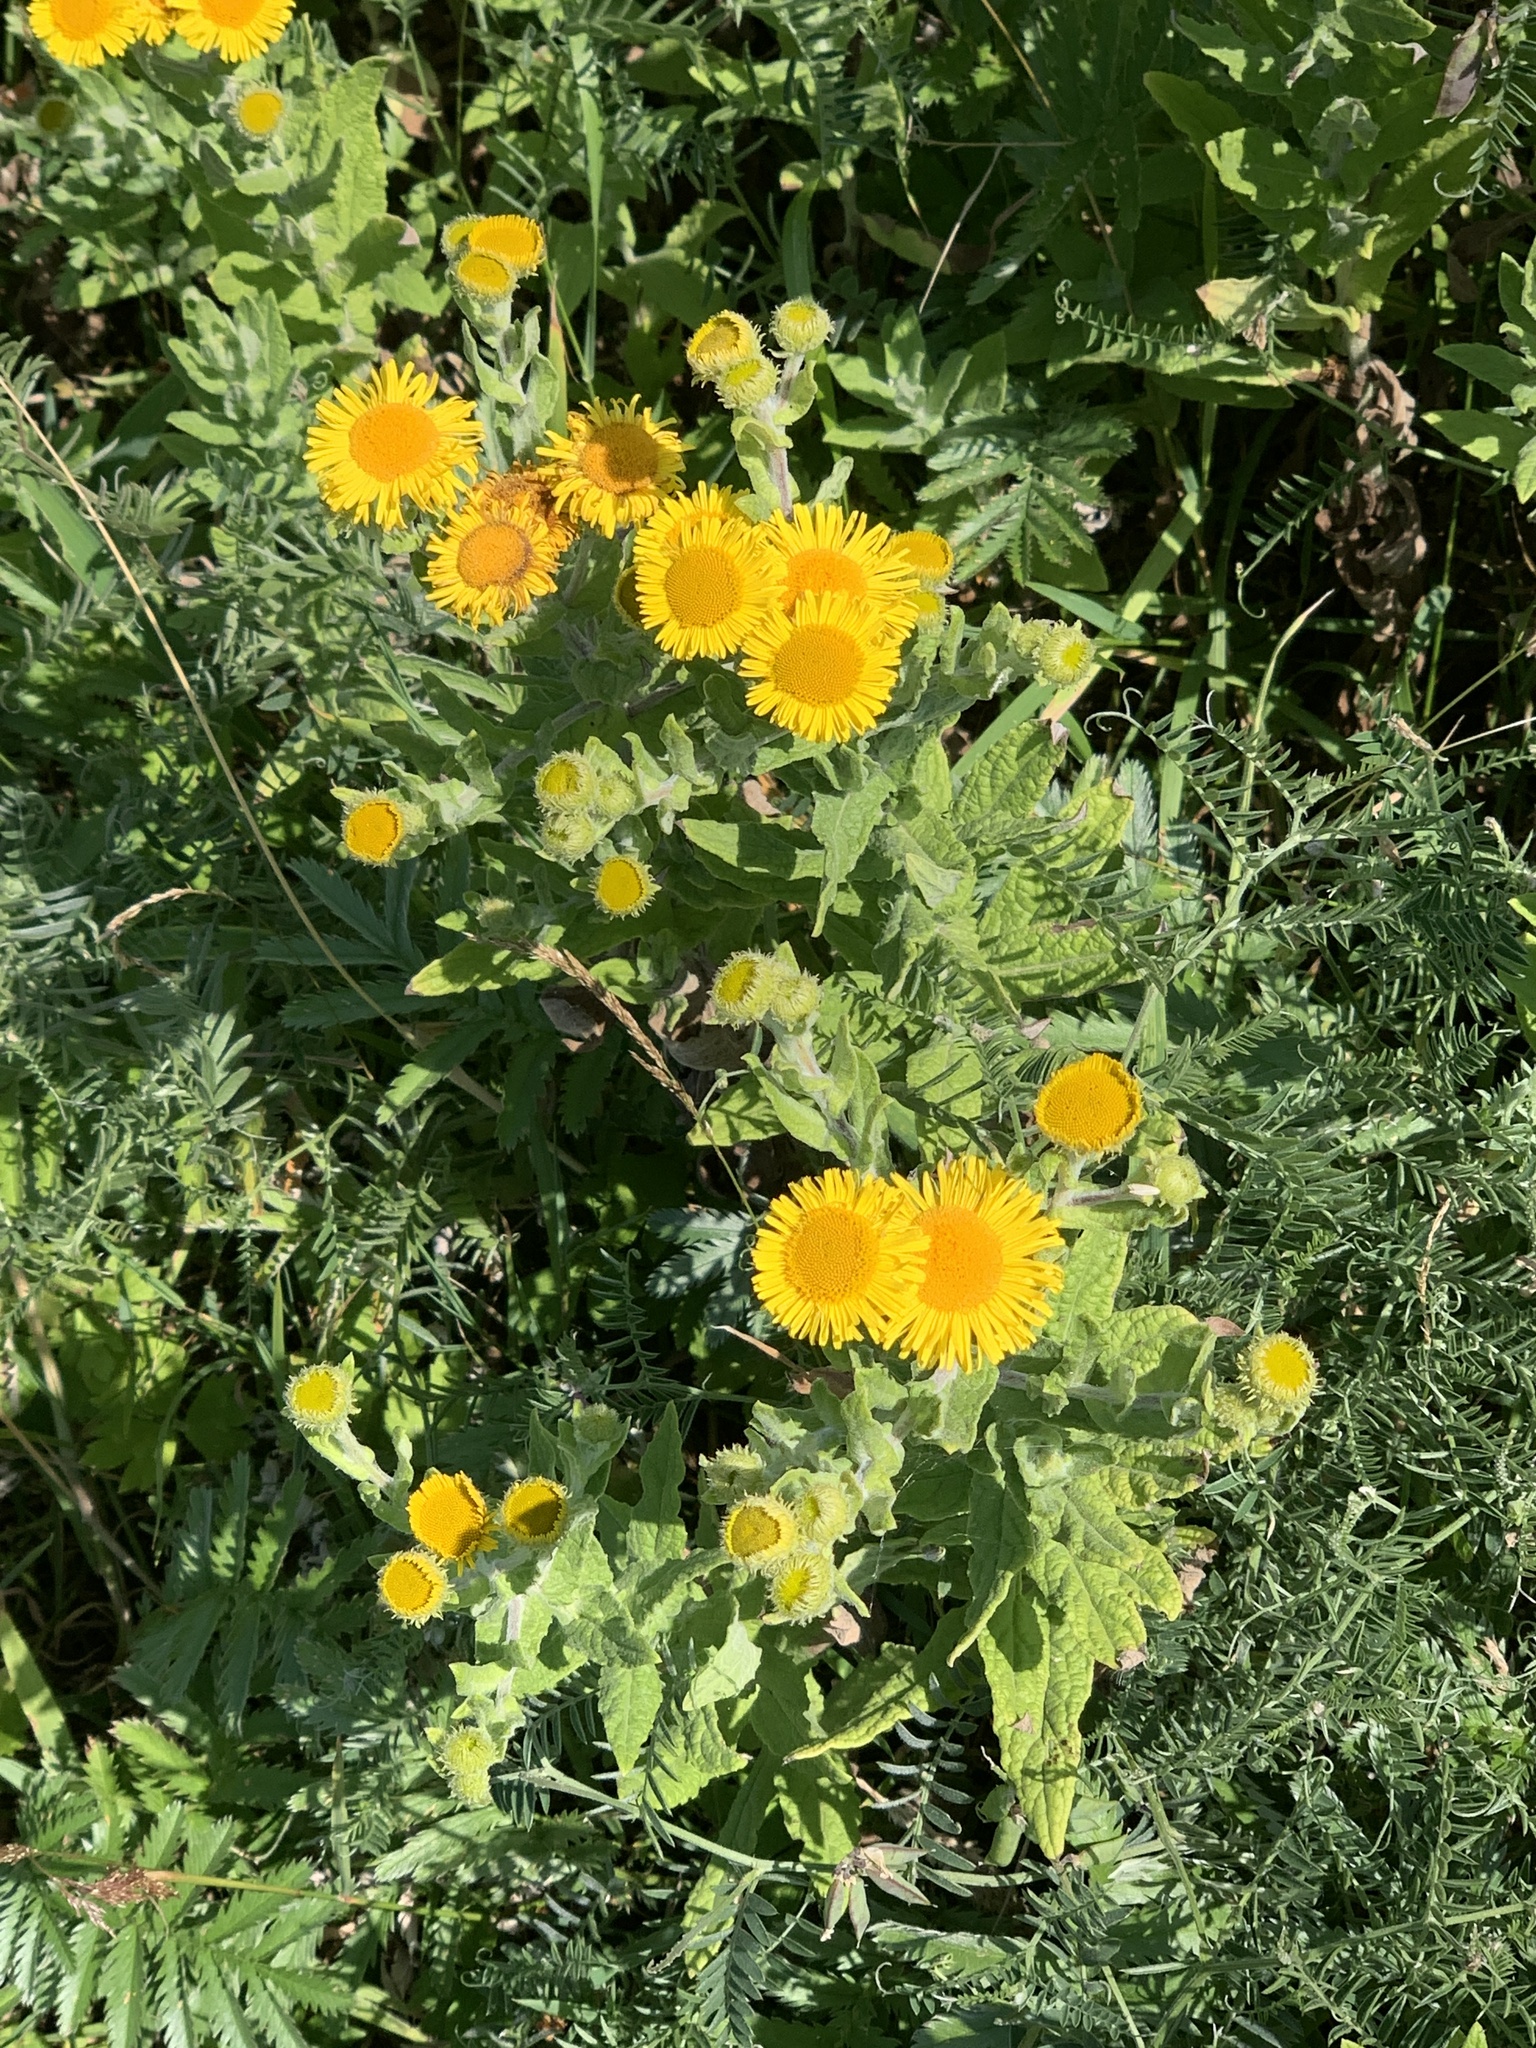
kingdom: Plantae
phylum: Tracheophyta
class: Magnoliopsida
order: Asterales
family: Asteraceae
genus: Pulicaria
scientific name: Pulicaria dysenterica
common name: Common fleabane
